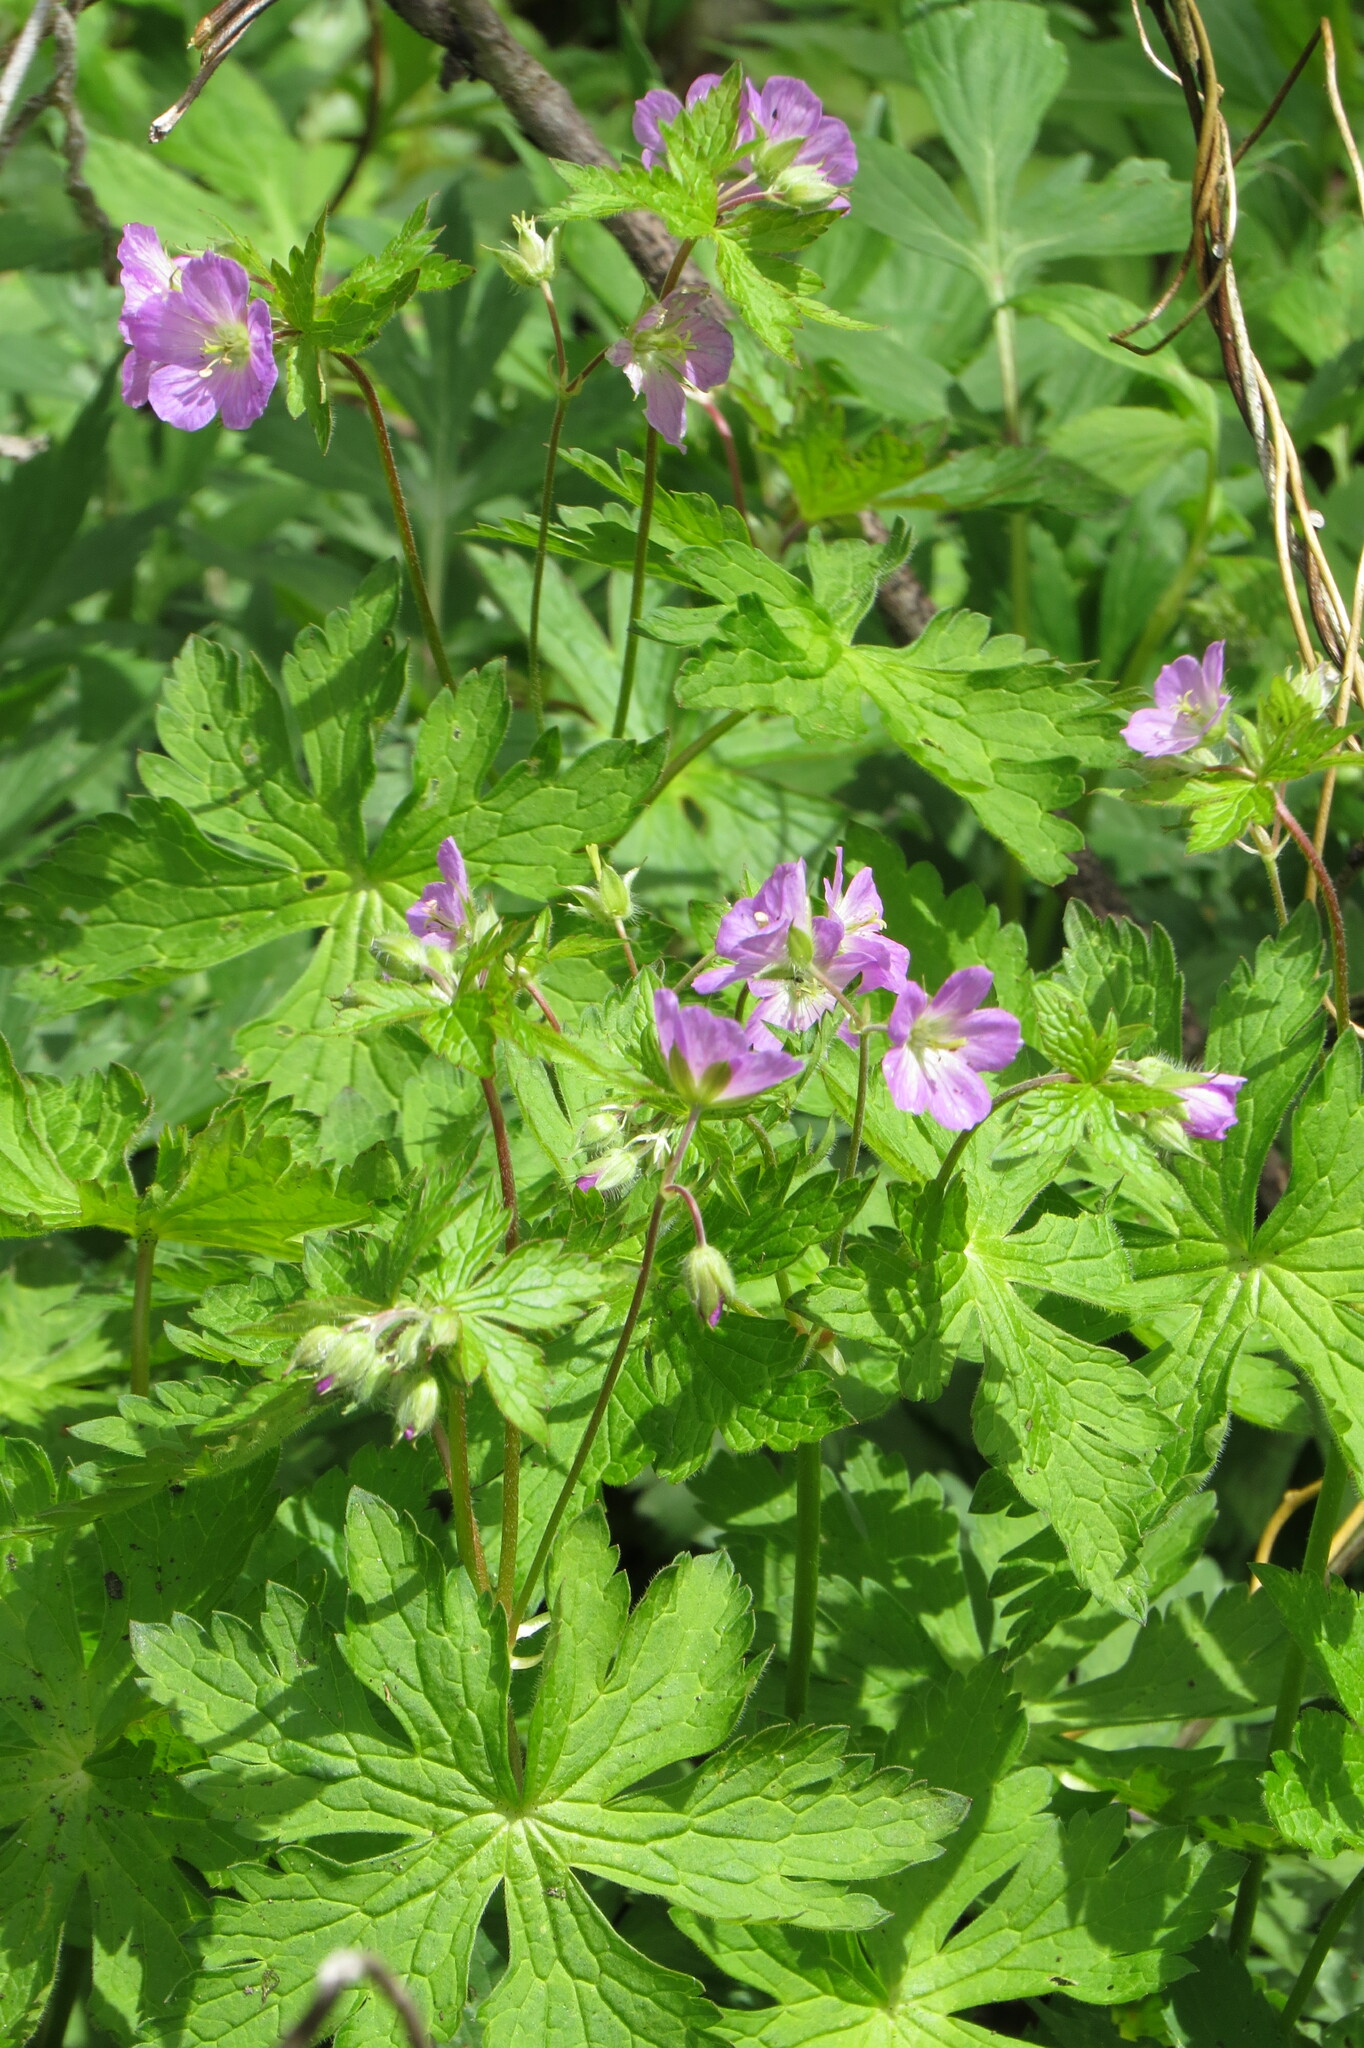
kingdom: Plantae
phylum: Tracheophyta
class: Magnoliopsida
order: Geraniales
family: Geraniaceae
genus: Geranium
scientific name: Geranium maculatum
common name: Spotted geranium
